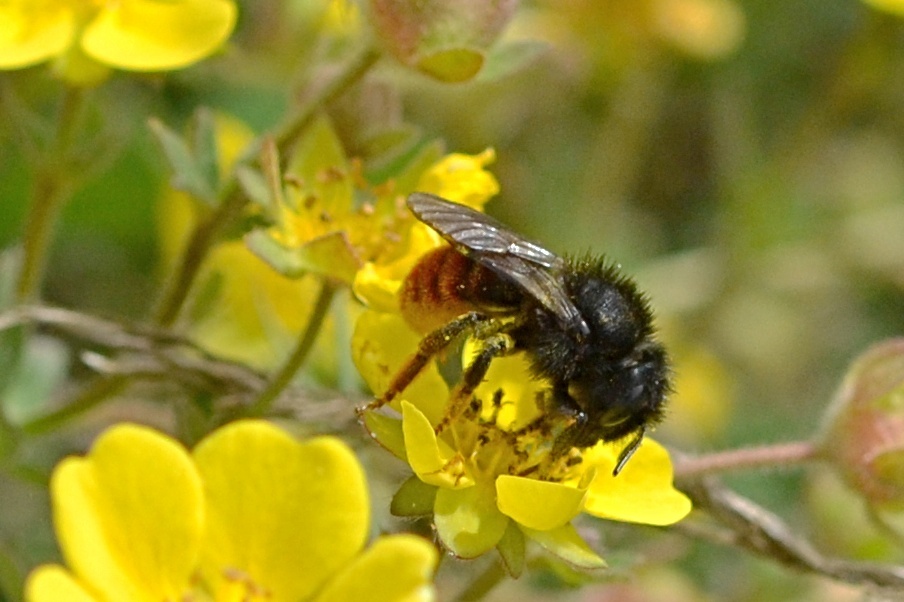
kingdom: Animalia
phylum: Arthropoda
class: Insecta
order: Hymenoptera
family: Megachilidae
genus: Osmia
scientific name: Osmia bicolor
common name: Red-tailed mason bee
